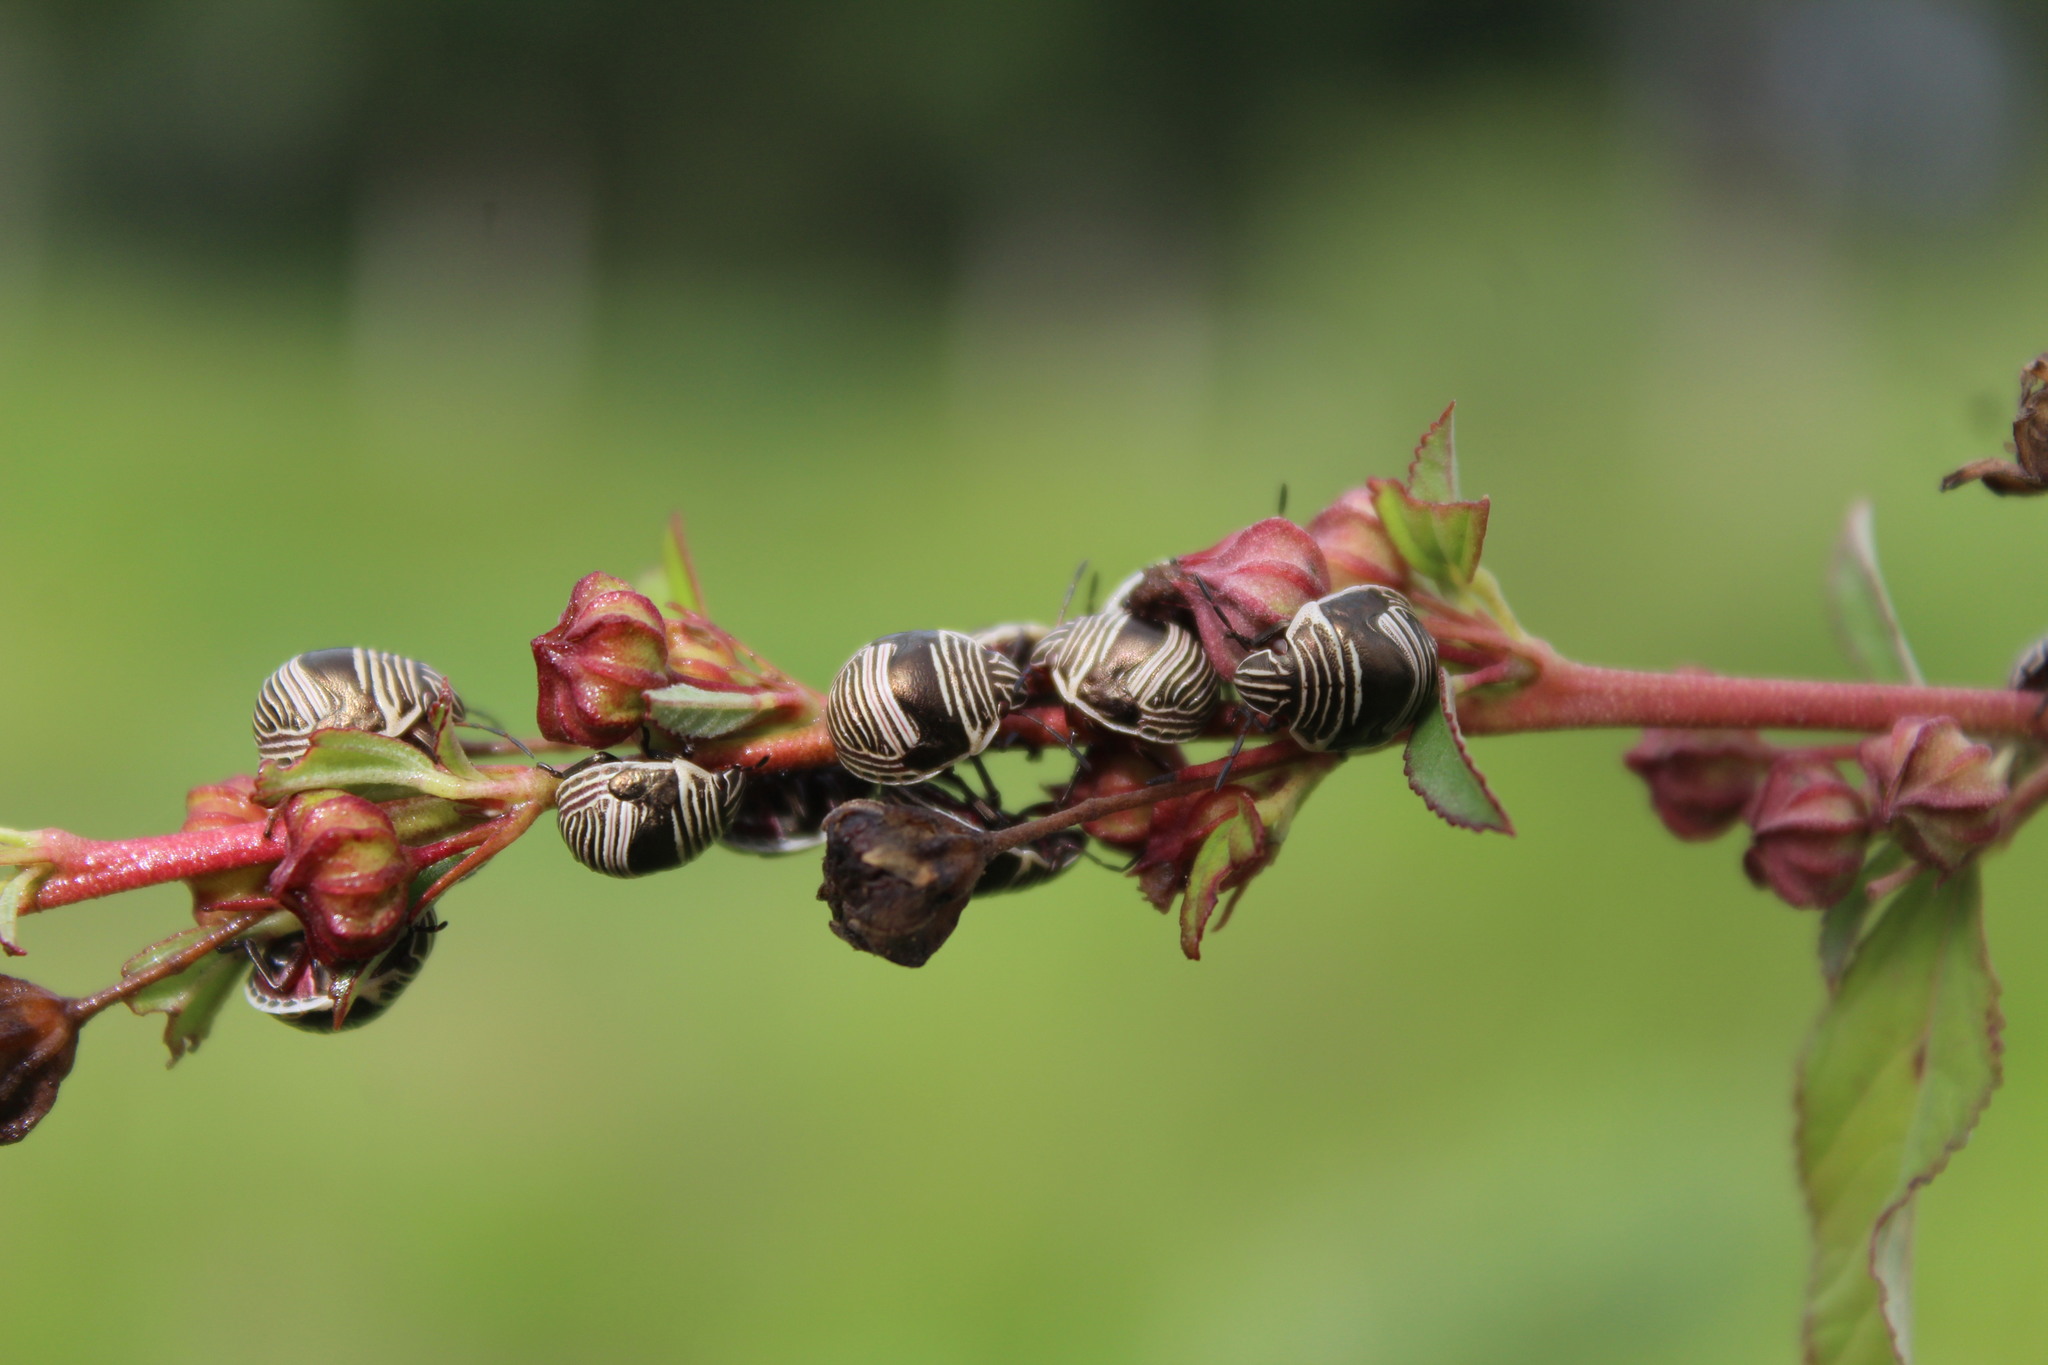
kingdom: Animalia
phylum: Arthropoda
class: Insecta
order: Hemiptera
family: Scutelleridae
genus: Orsilochides
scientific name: Orsilochides
